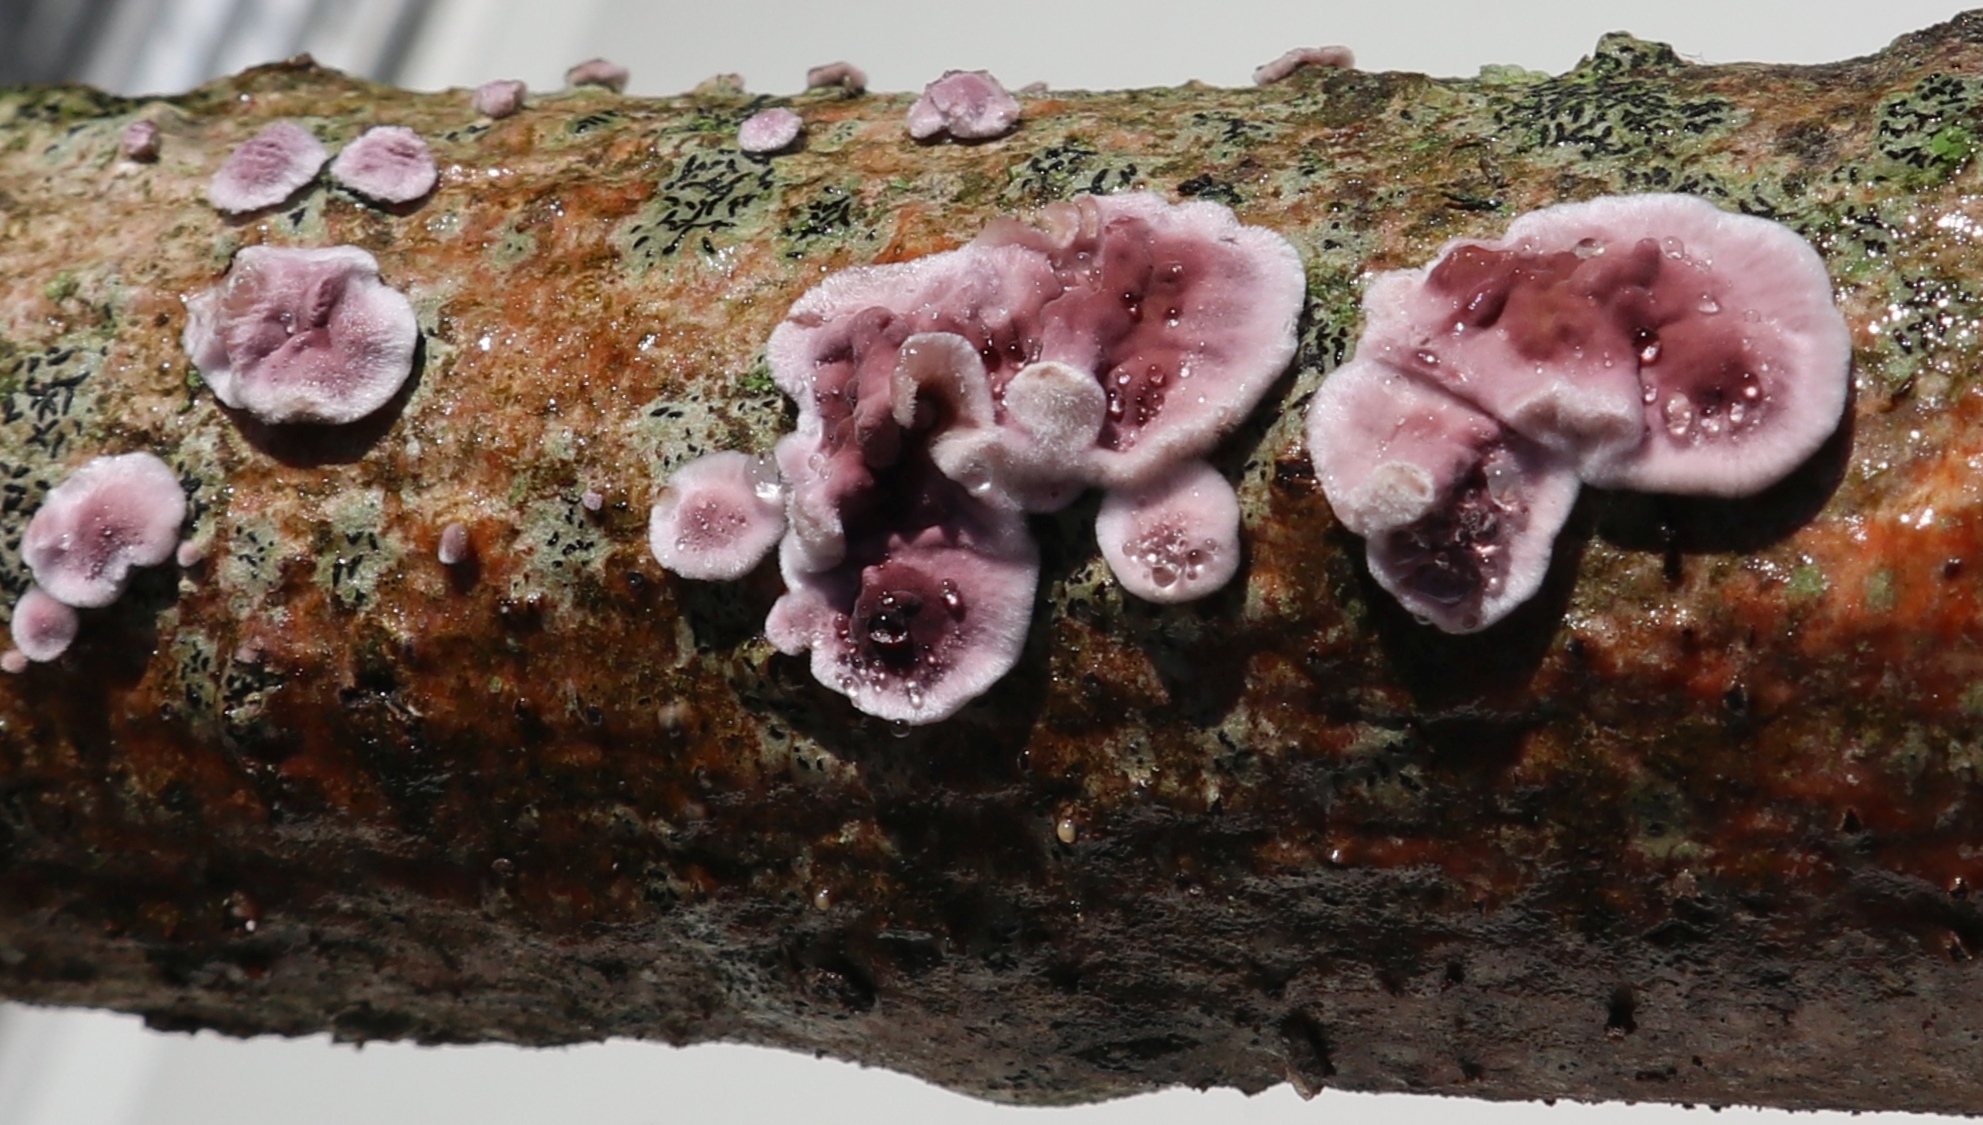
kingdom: Fungi
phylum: Basidiomycota
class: Agaricomycetes
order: Agaricales
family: Cyphellaceae
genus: Chondrostereum
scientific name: Chondrostereum purpureum
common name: Silver leaf disease
